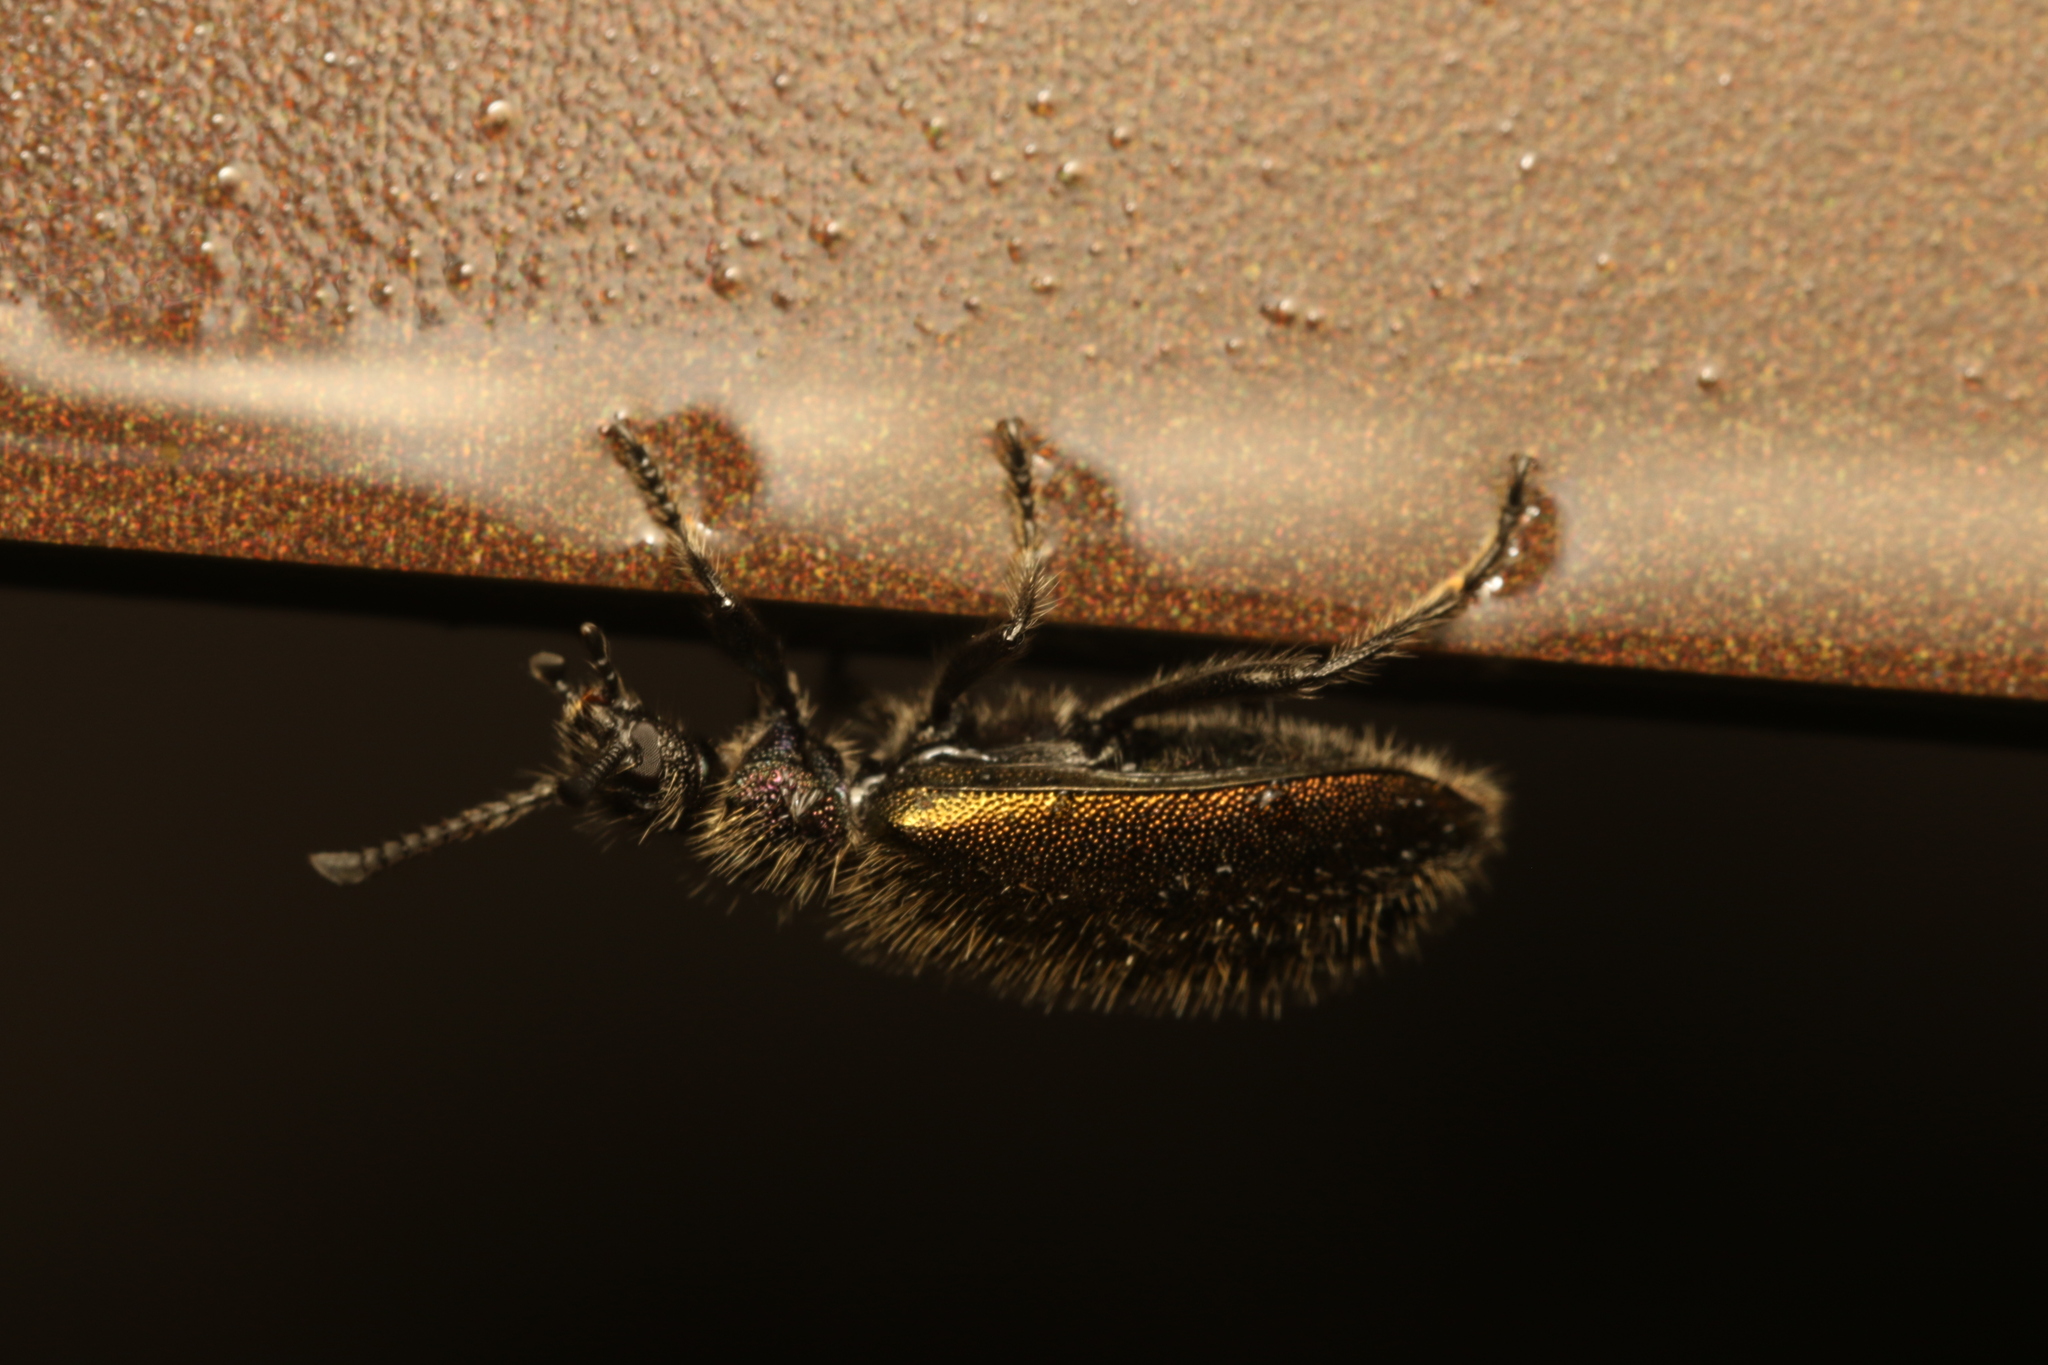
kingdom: Animalia
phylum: Arthropoda
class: Insecta
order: Coleoptera
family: Tenebrionidae
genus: Lagria
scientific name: Lagria villosa
